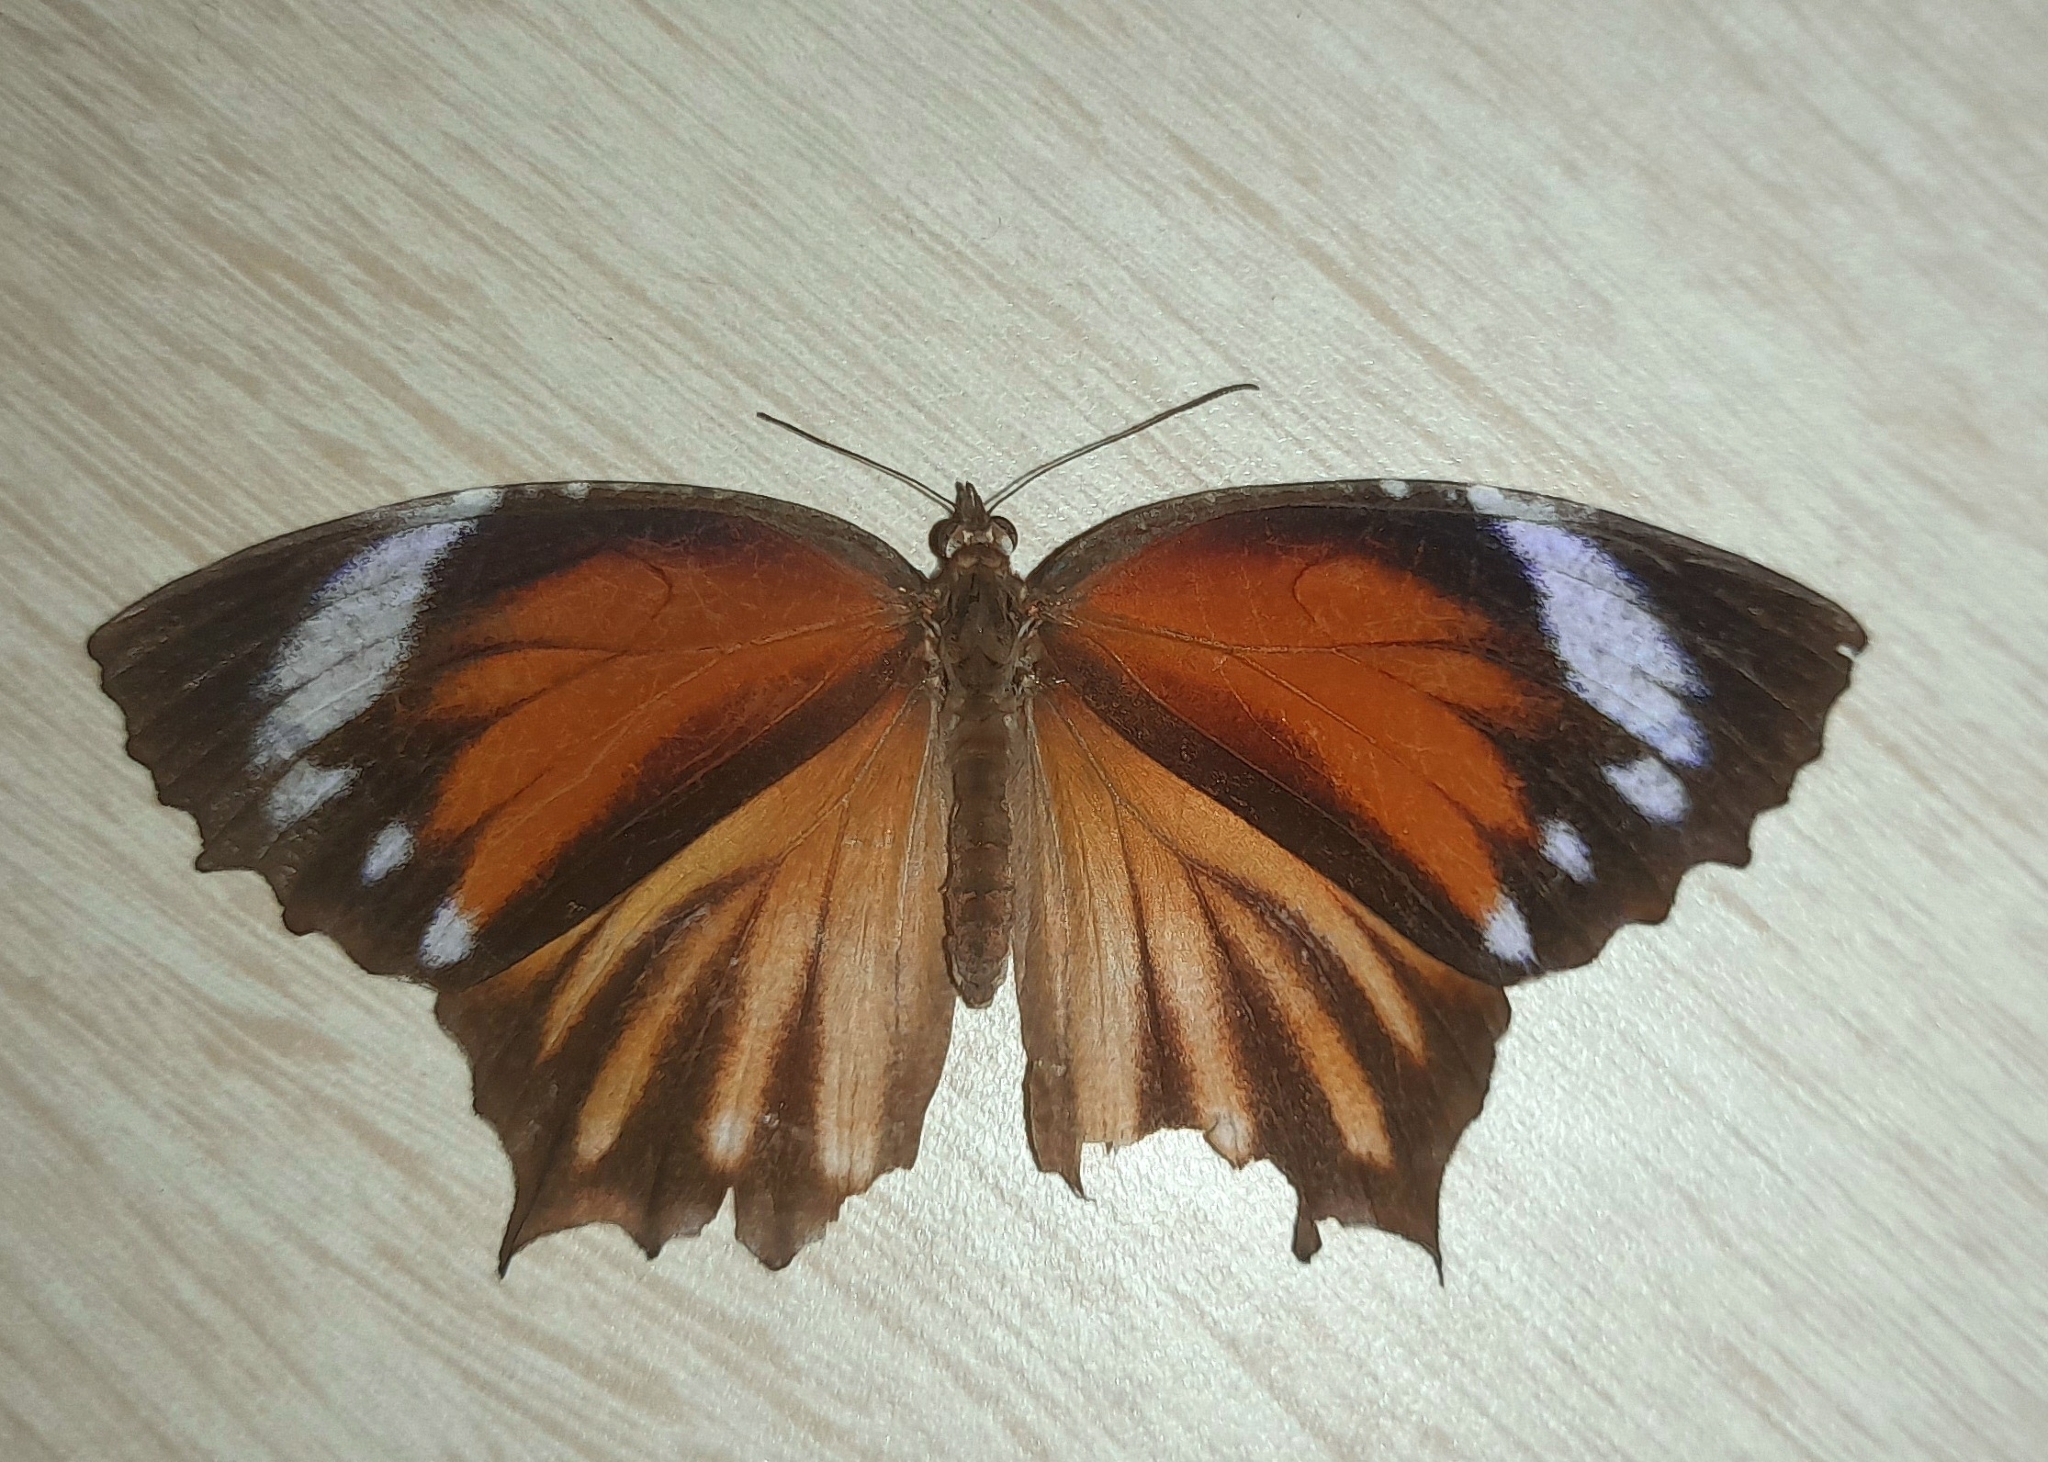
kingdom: Animalia
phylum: Arthropoda
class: Insecta
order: Lepidoptera
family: Nymphalidae
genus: Elymnias
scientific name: Elymnias caudata
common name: Tailed palmfly
